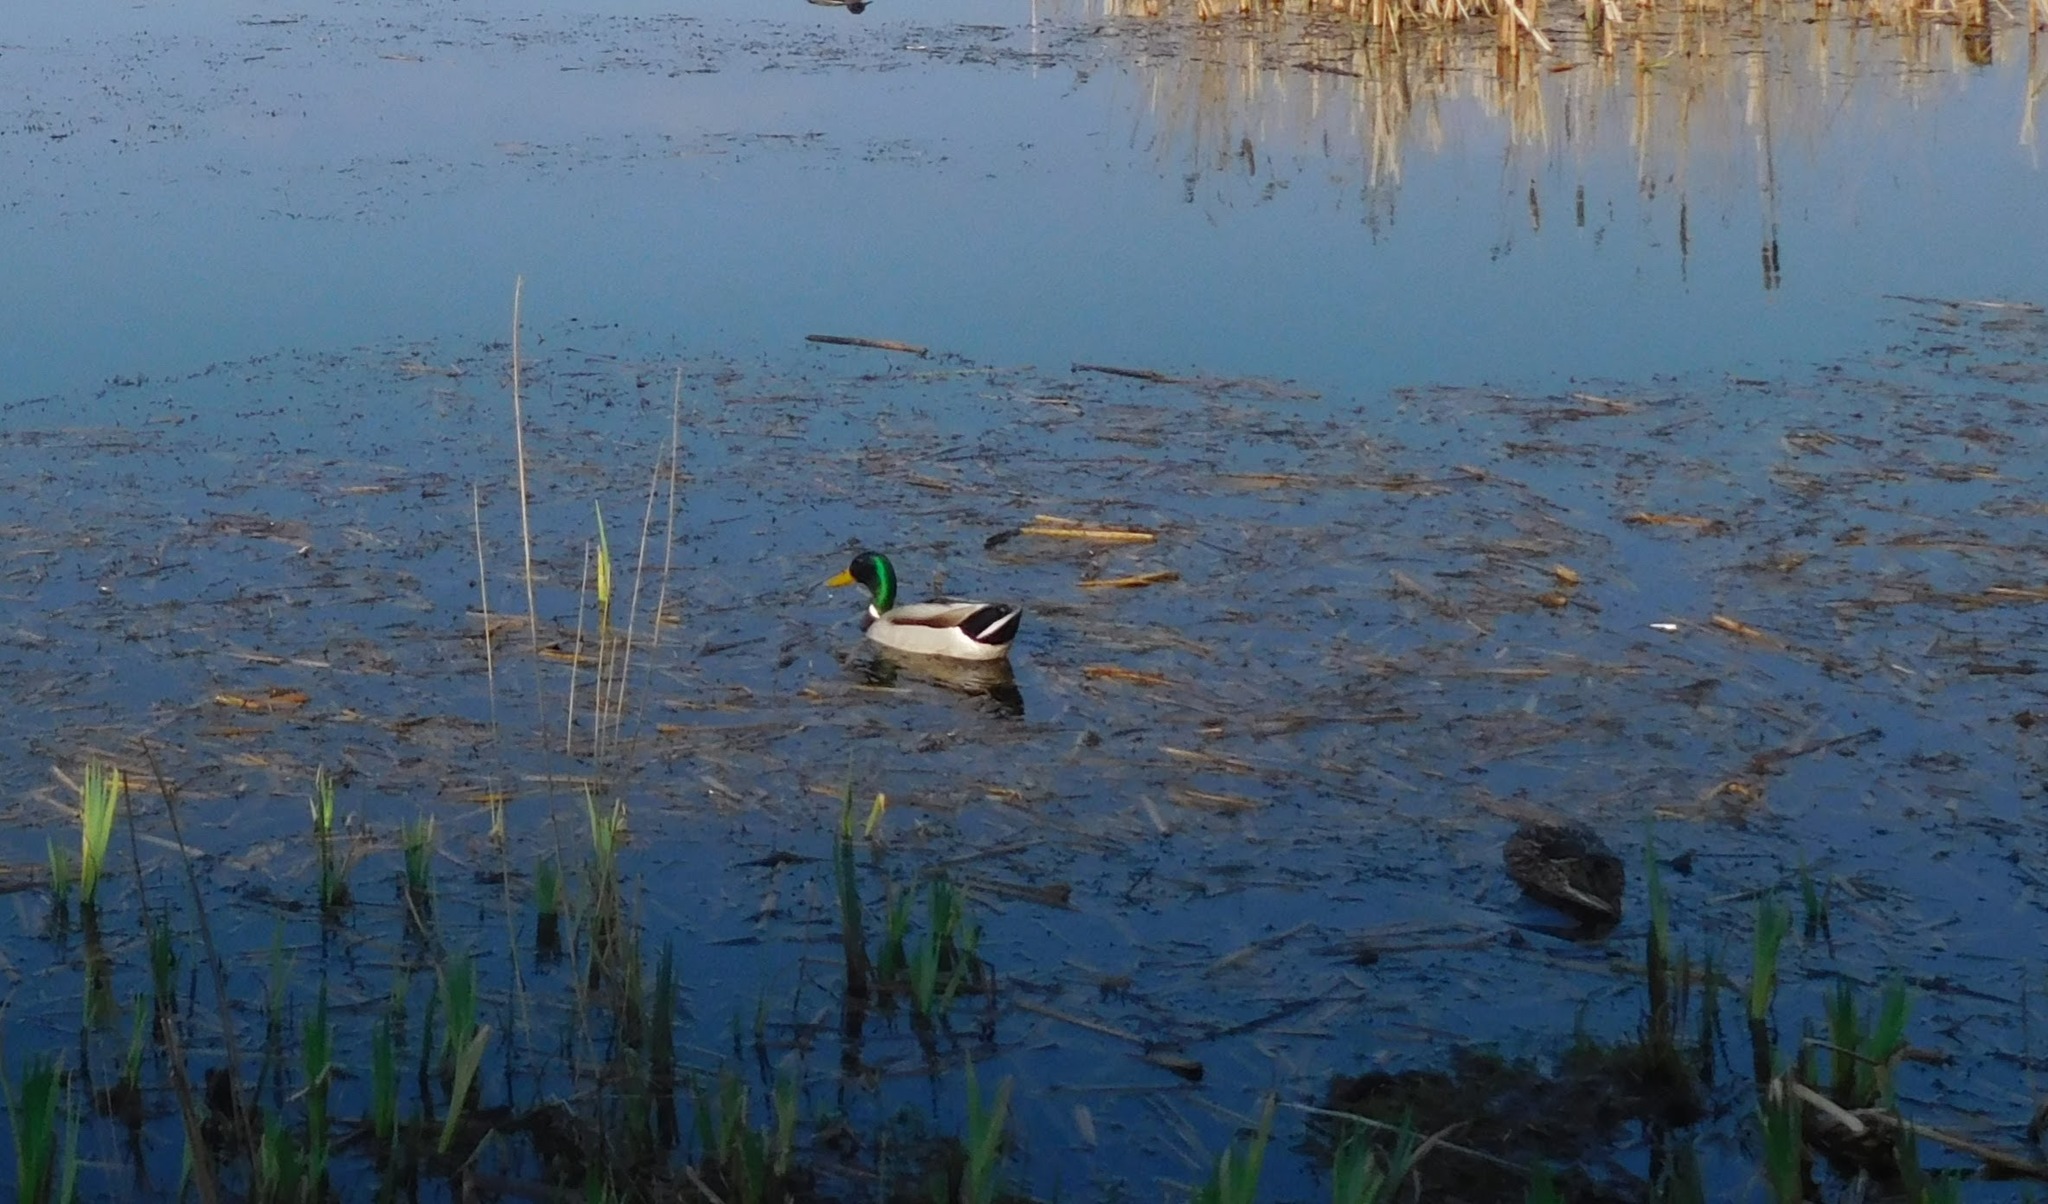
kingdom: Animalia
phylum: Chordata
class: Aves
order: Anseriformes
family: Anatidae
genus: Anas
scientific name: Anas platyrhynchos
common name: Mallard
